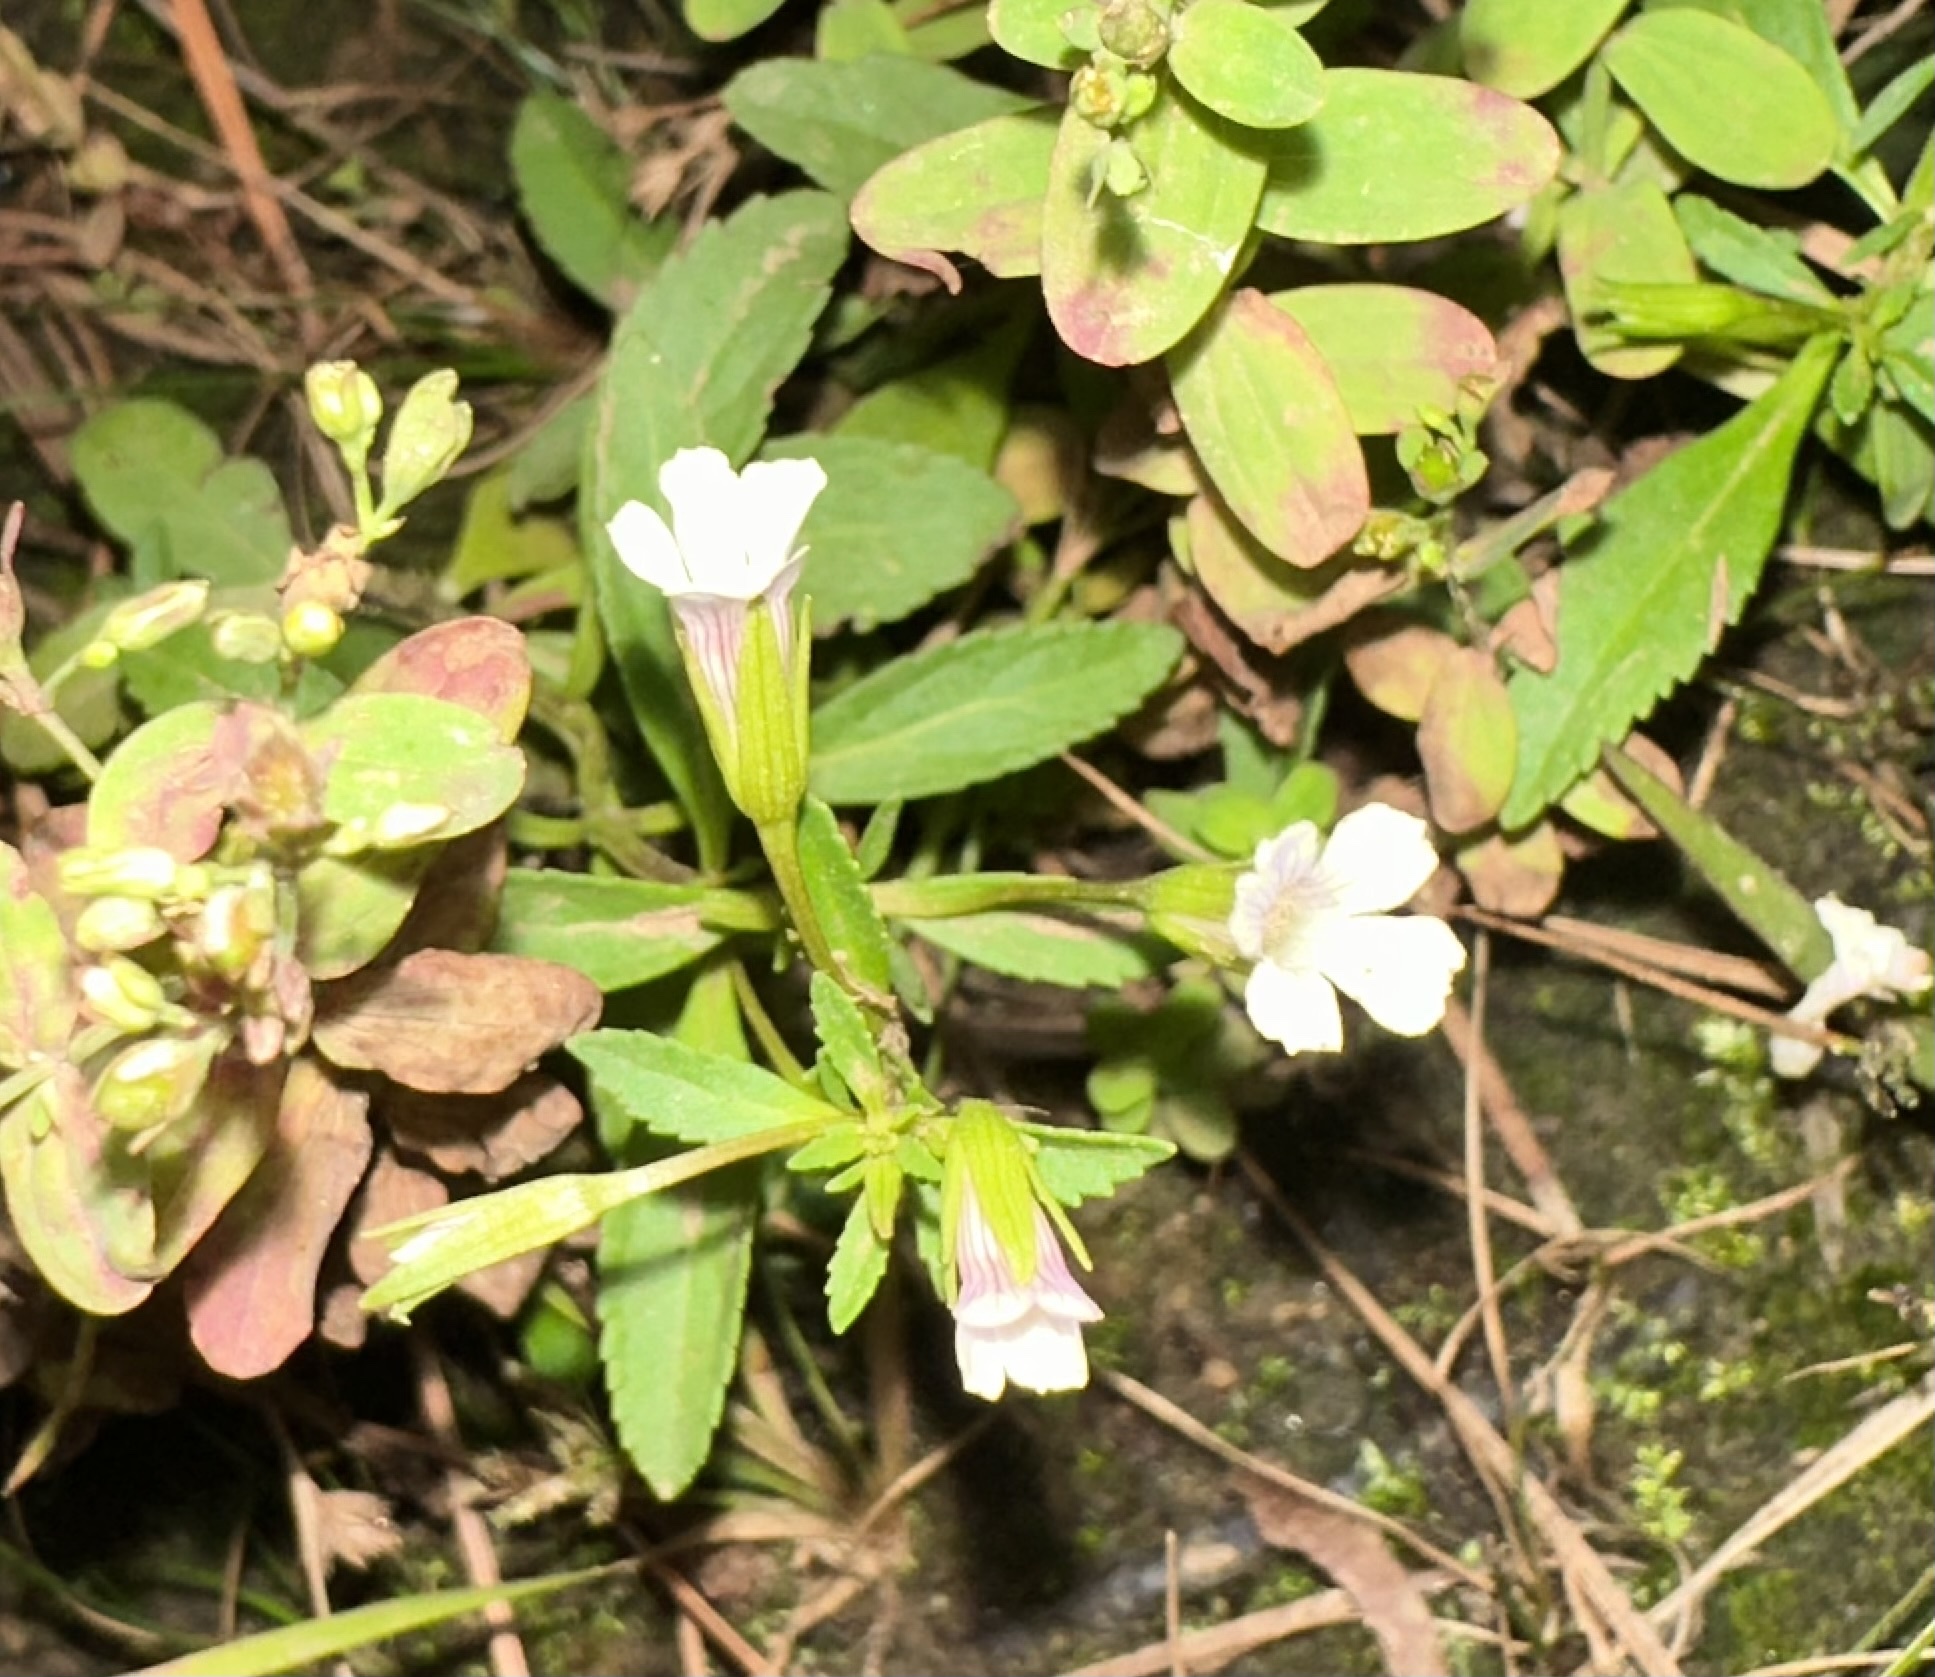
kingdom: Plantae
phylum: Tracheophyta
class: Magnoliopsida
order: Lamiales
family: Plantaginaceae
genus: Mecardonia
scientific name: Mecardonia acuminata
